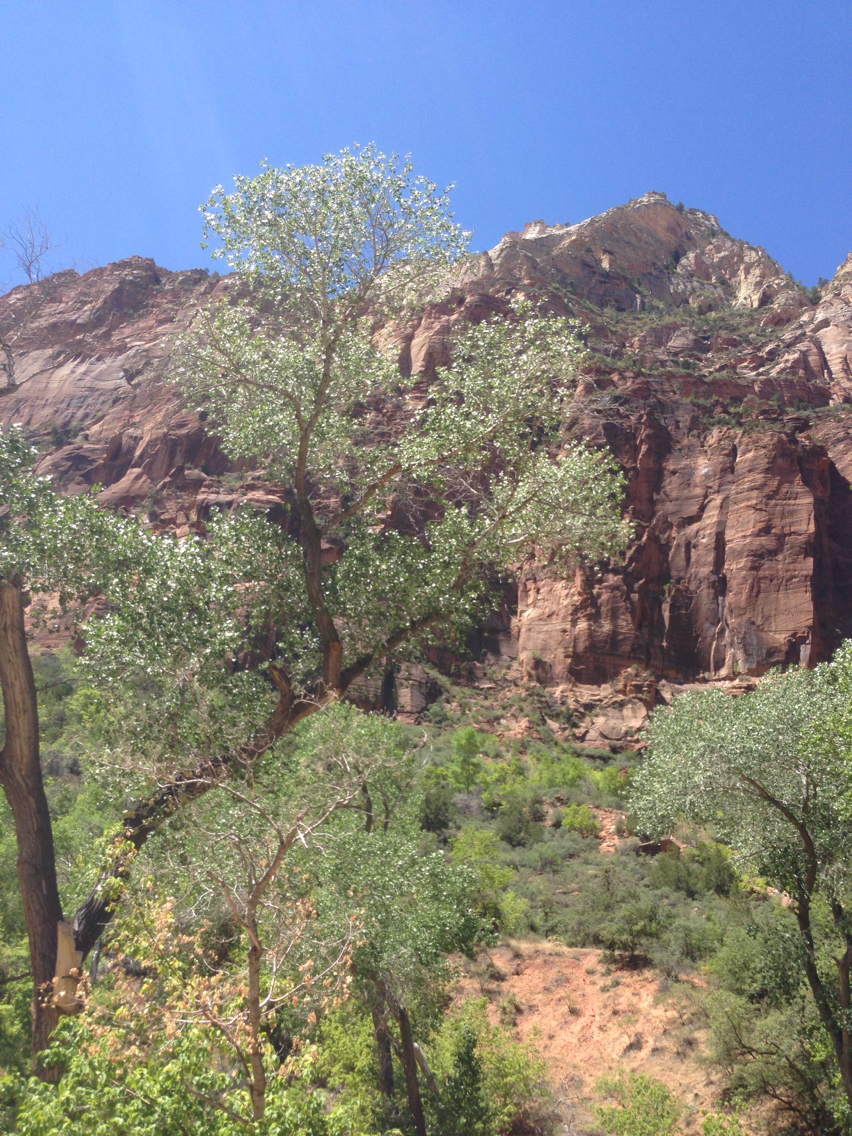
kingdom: Plantae
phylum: Tracheophyta
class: Magnoliopsida
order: Malpighiales
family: Salicaceae
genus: Populus
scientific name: Populus fremontii
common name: Fremont's cottonwood
